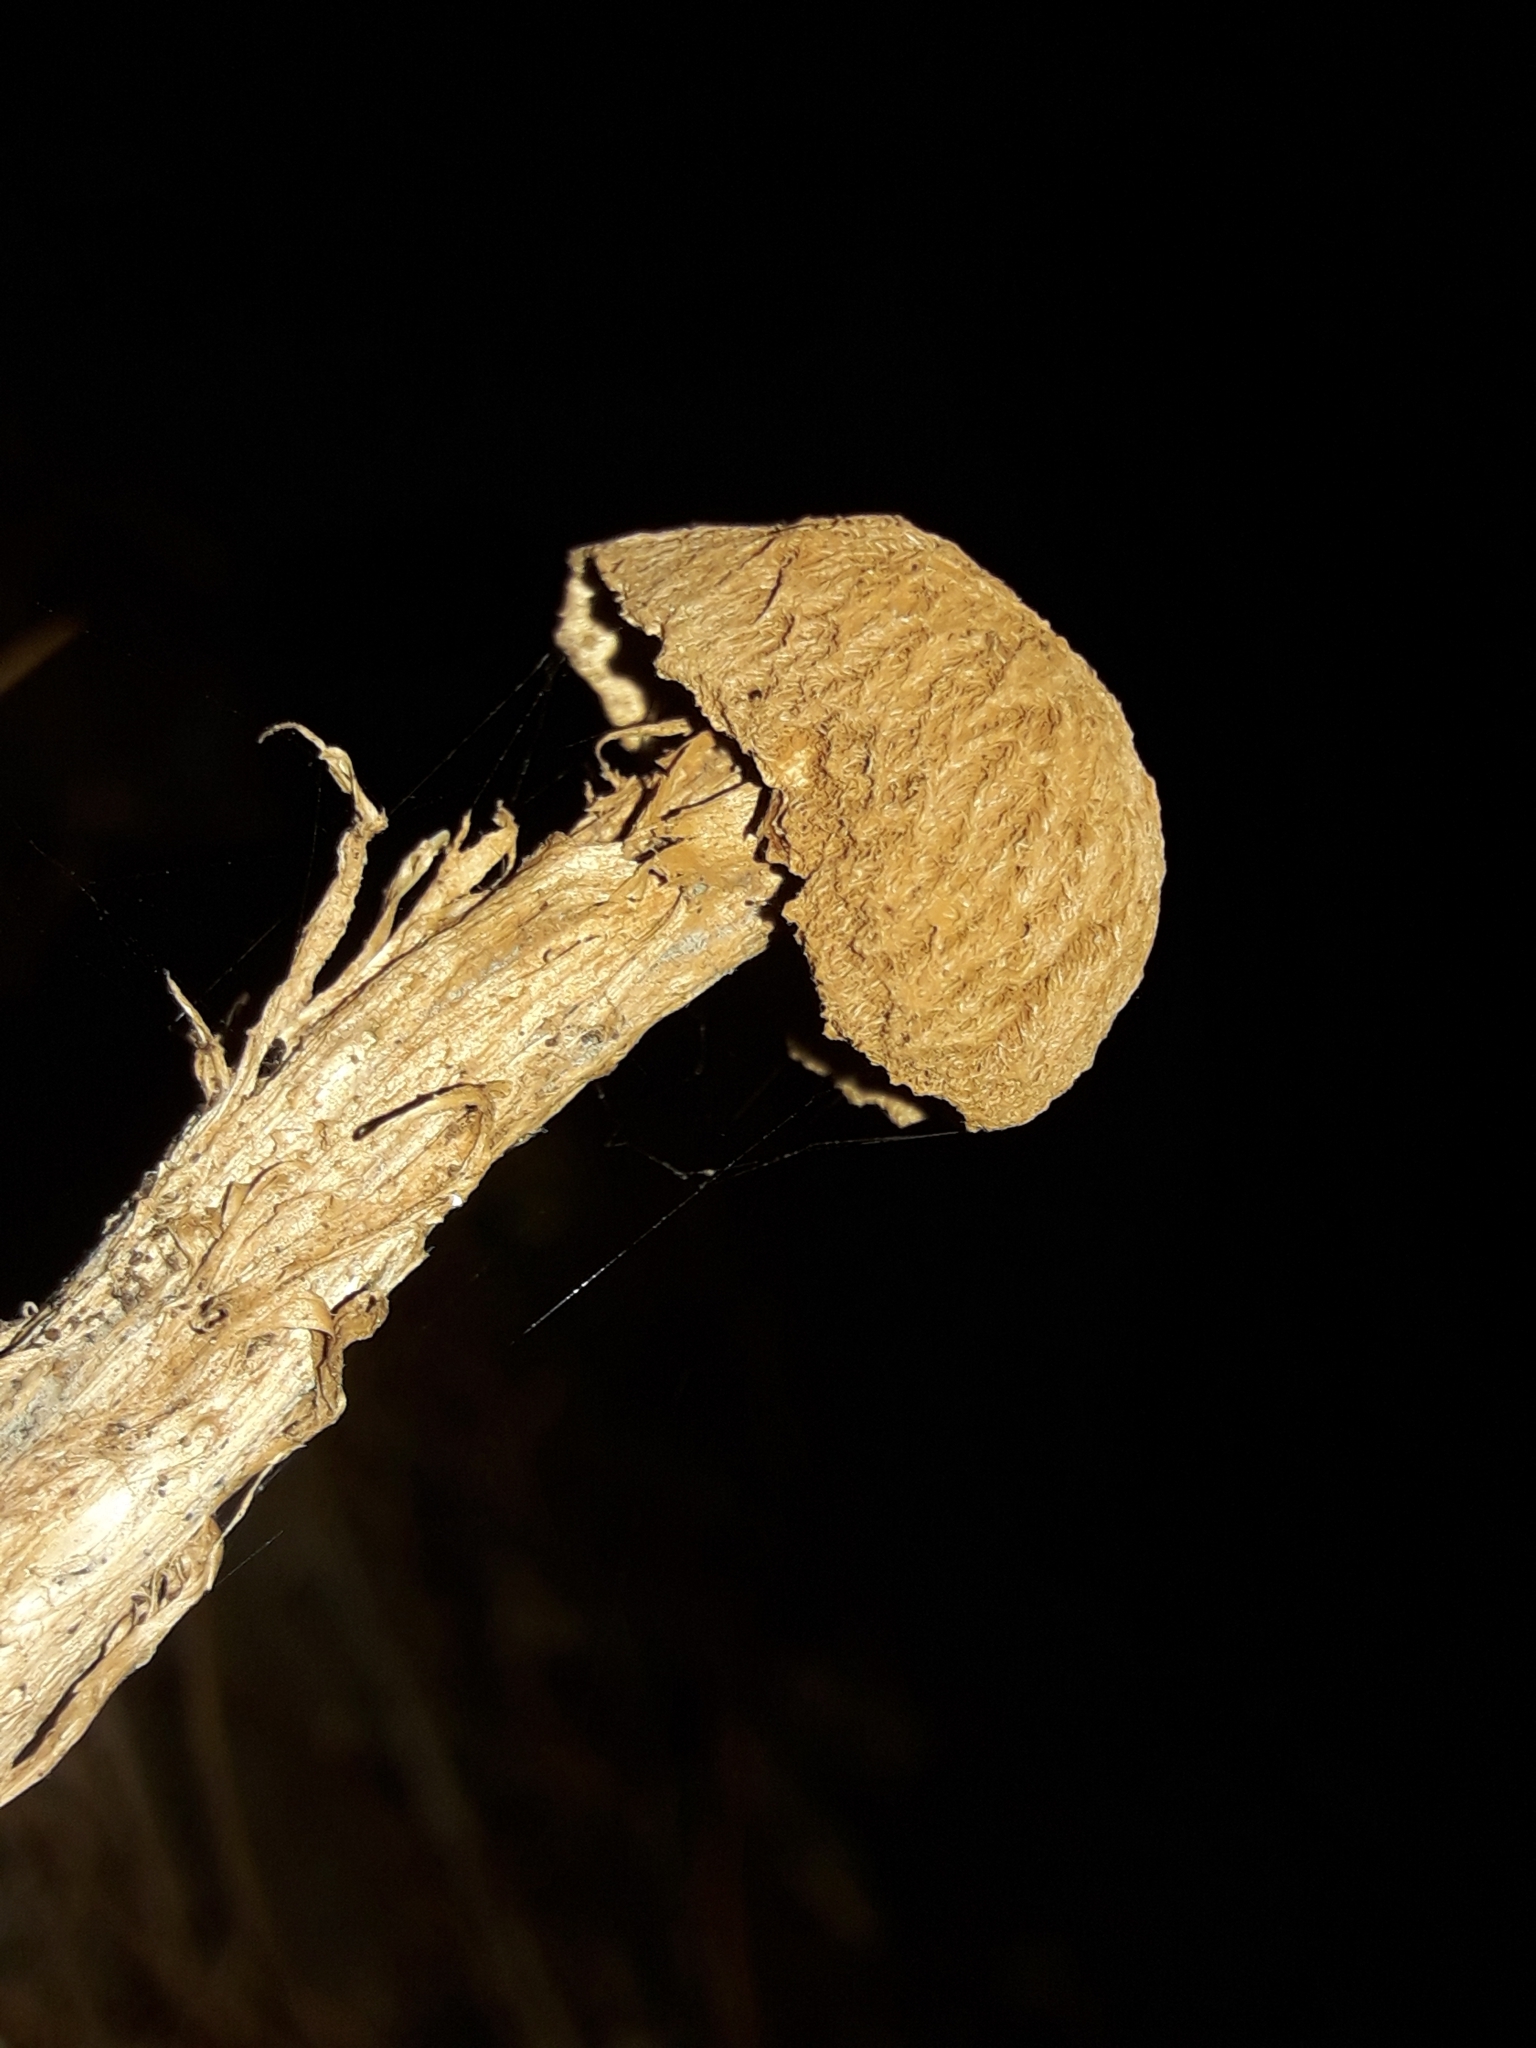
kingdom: Fungi
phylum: Basidiomycota
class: Agaricomycetes
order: Agaricales
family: Agaricaceae
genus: Battarrea
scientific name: Battarrea phalloides
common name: Sandy stiltball
